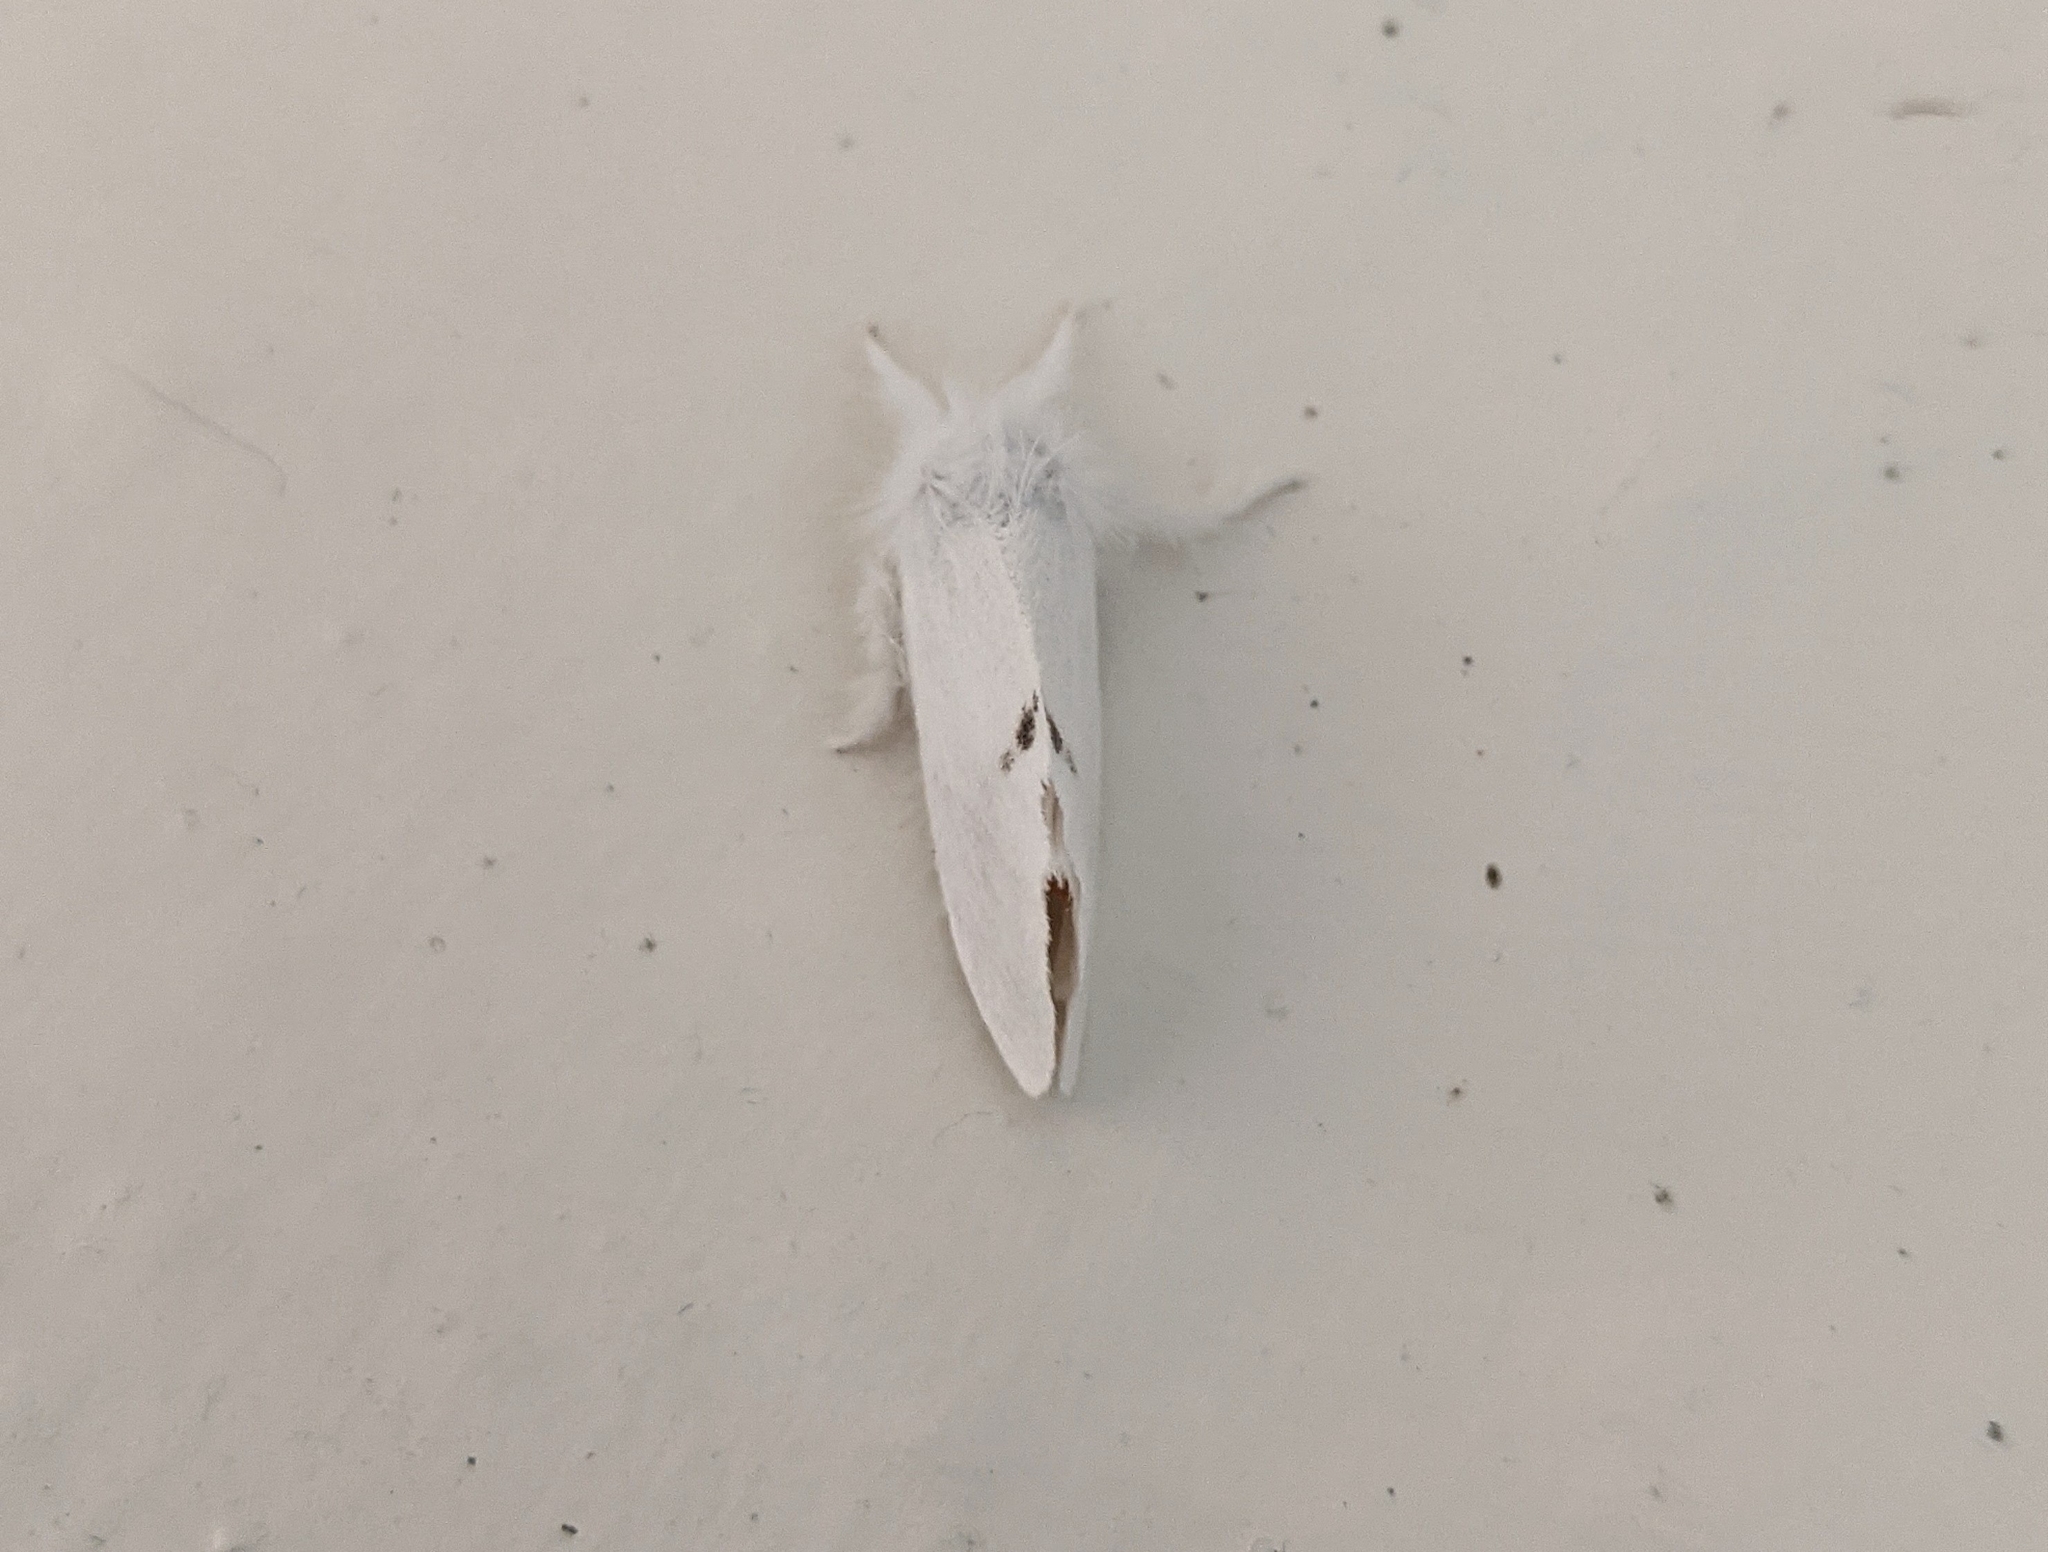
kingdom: Animalia
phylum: Arthropoda
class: Insecta
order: Lepidoptera
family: Erebidae
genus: Sphrageidus
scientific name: Sphrageidus similis
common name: Yellow-tail
